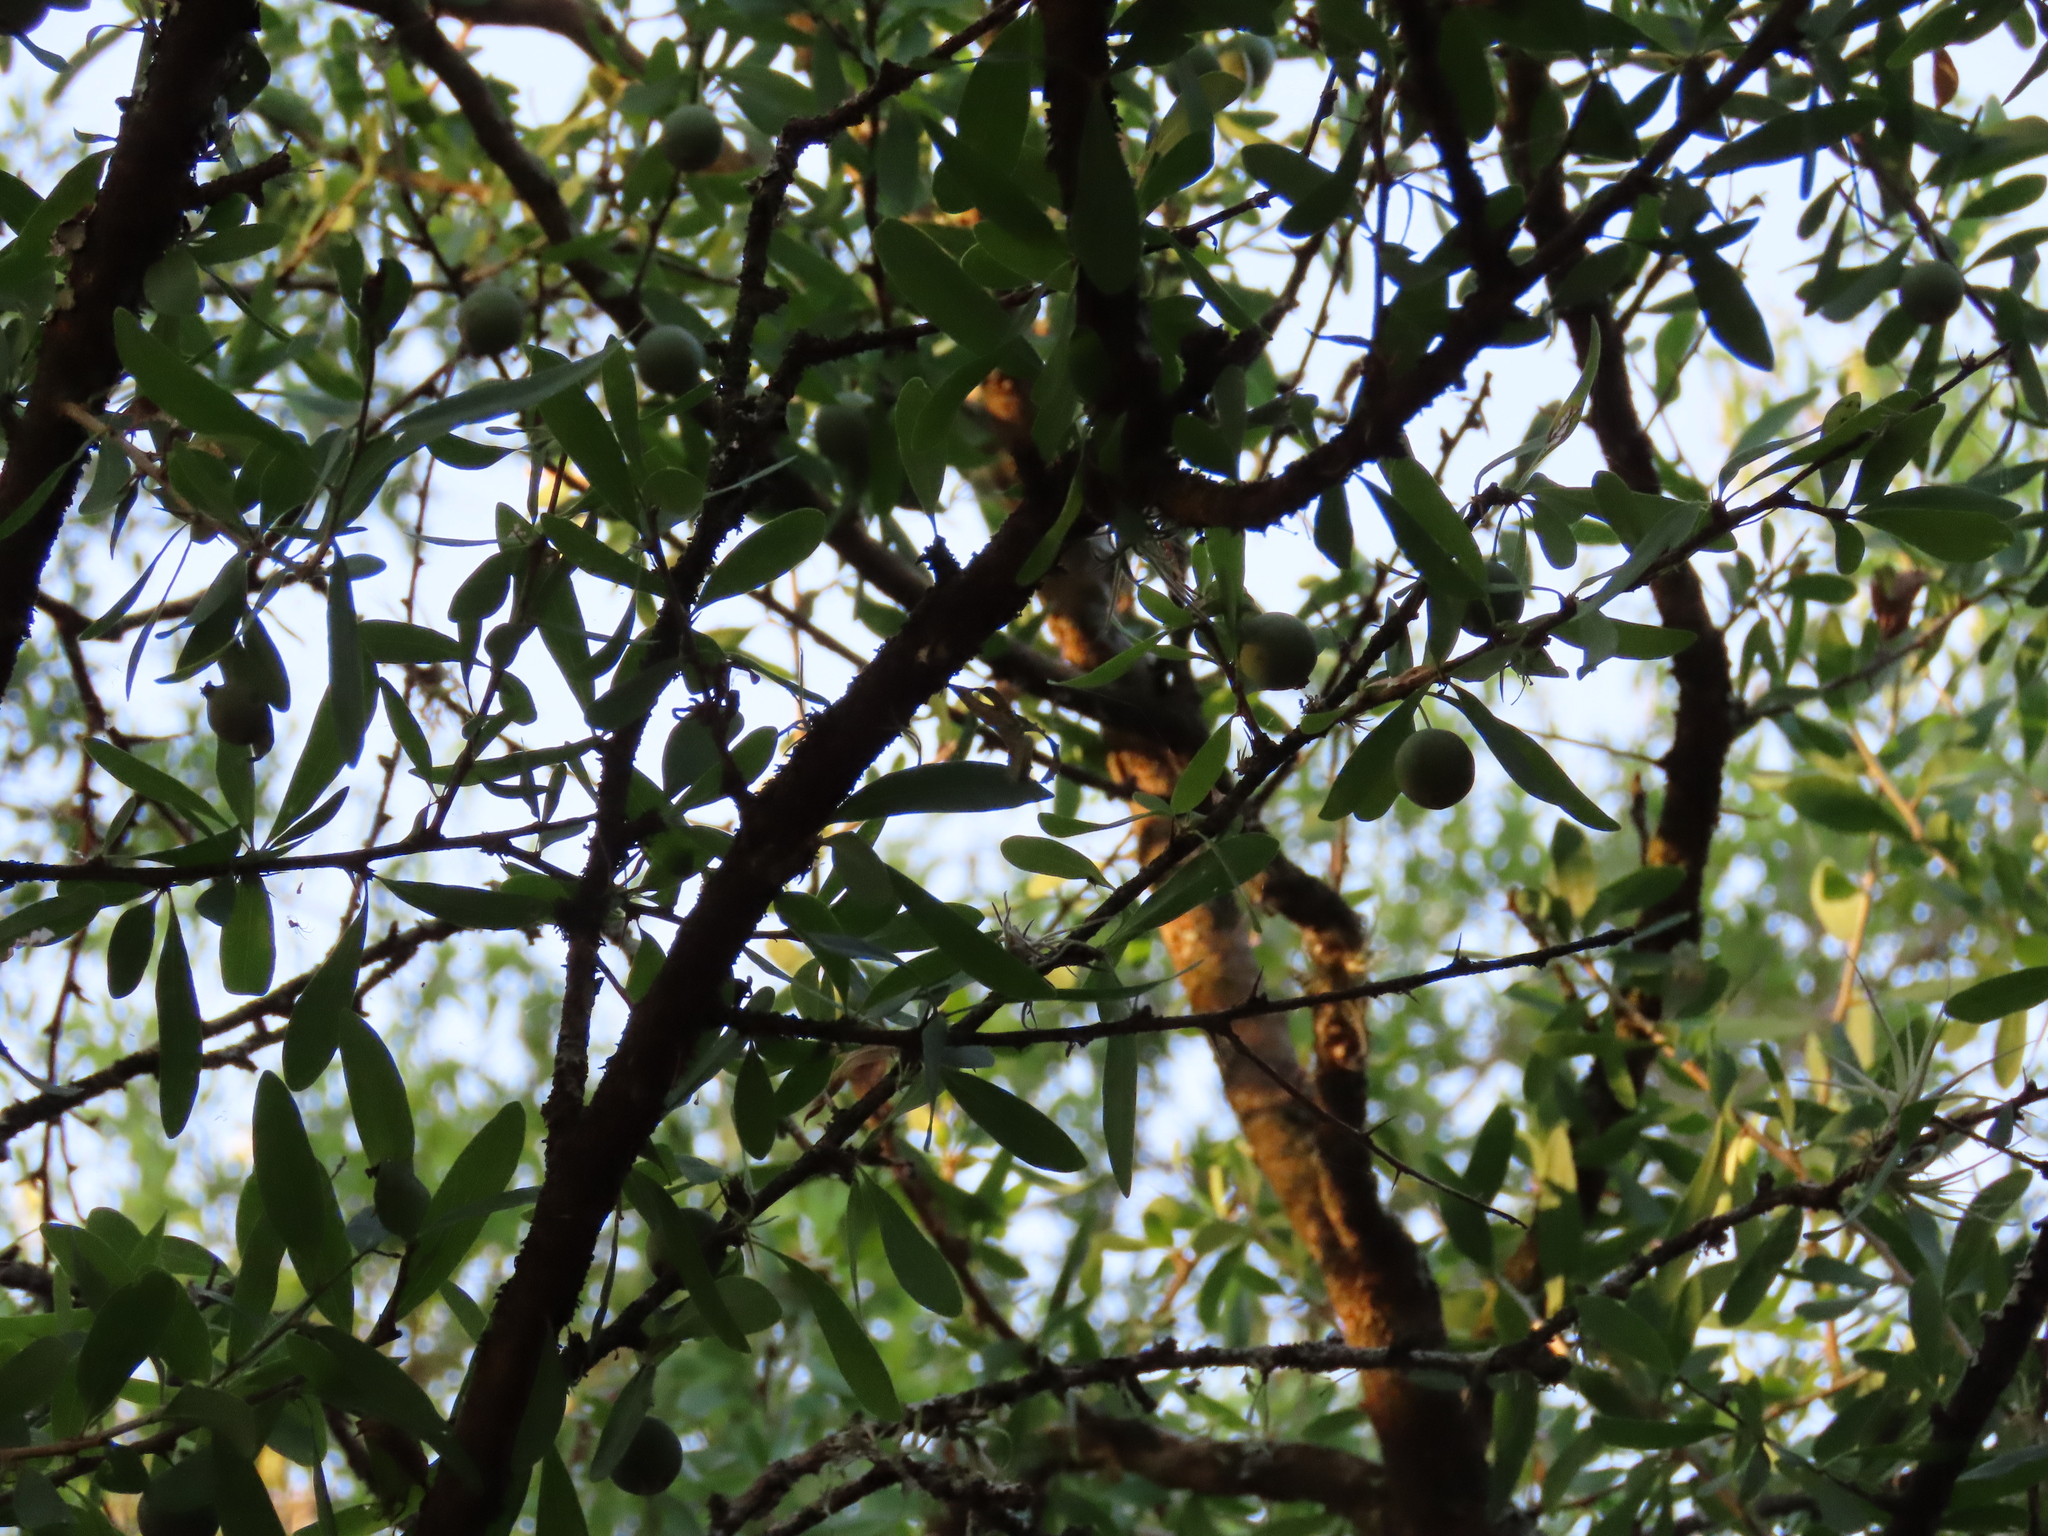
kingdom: Plantae
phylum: Tracheophyta
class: Magnoliopsida
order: Santalales
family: Cervantesiaceae
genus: Acanthosyris
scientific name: Acanthosyris spinescens
